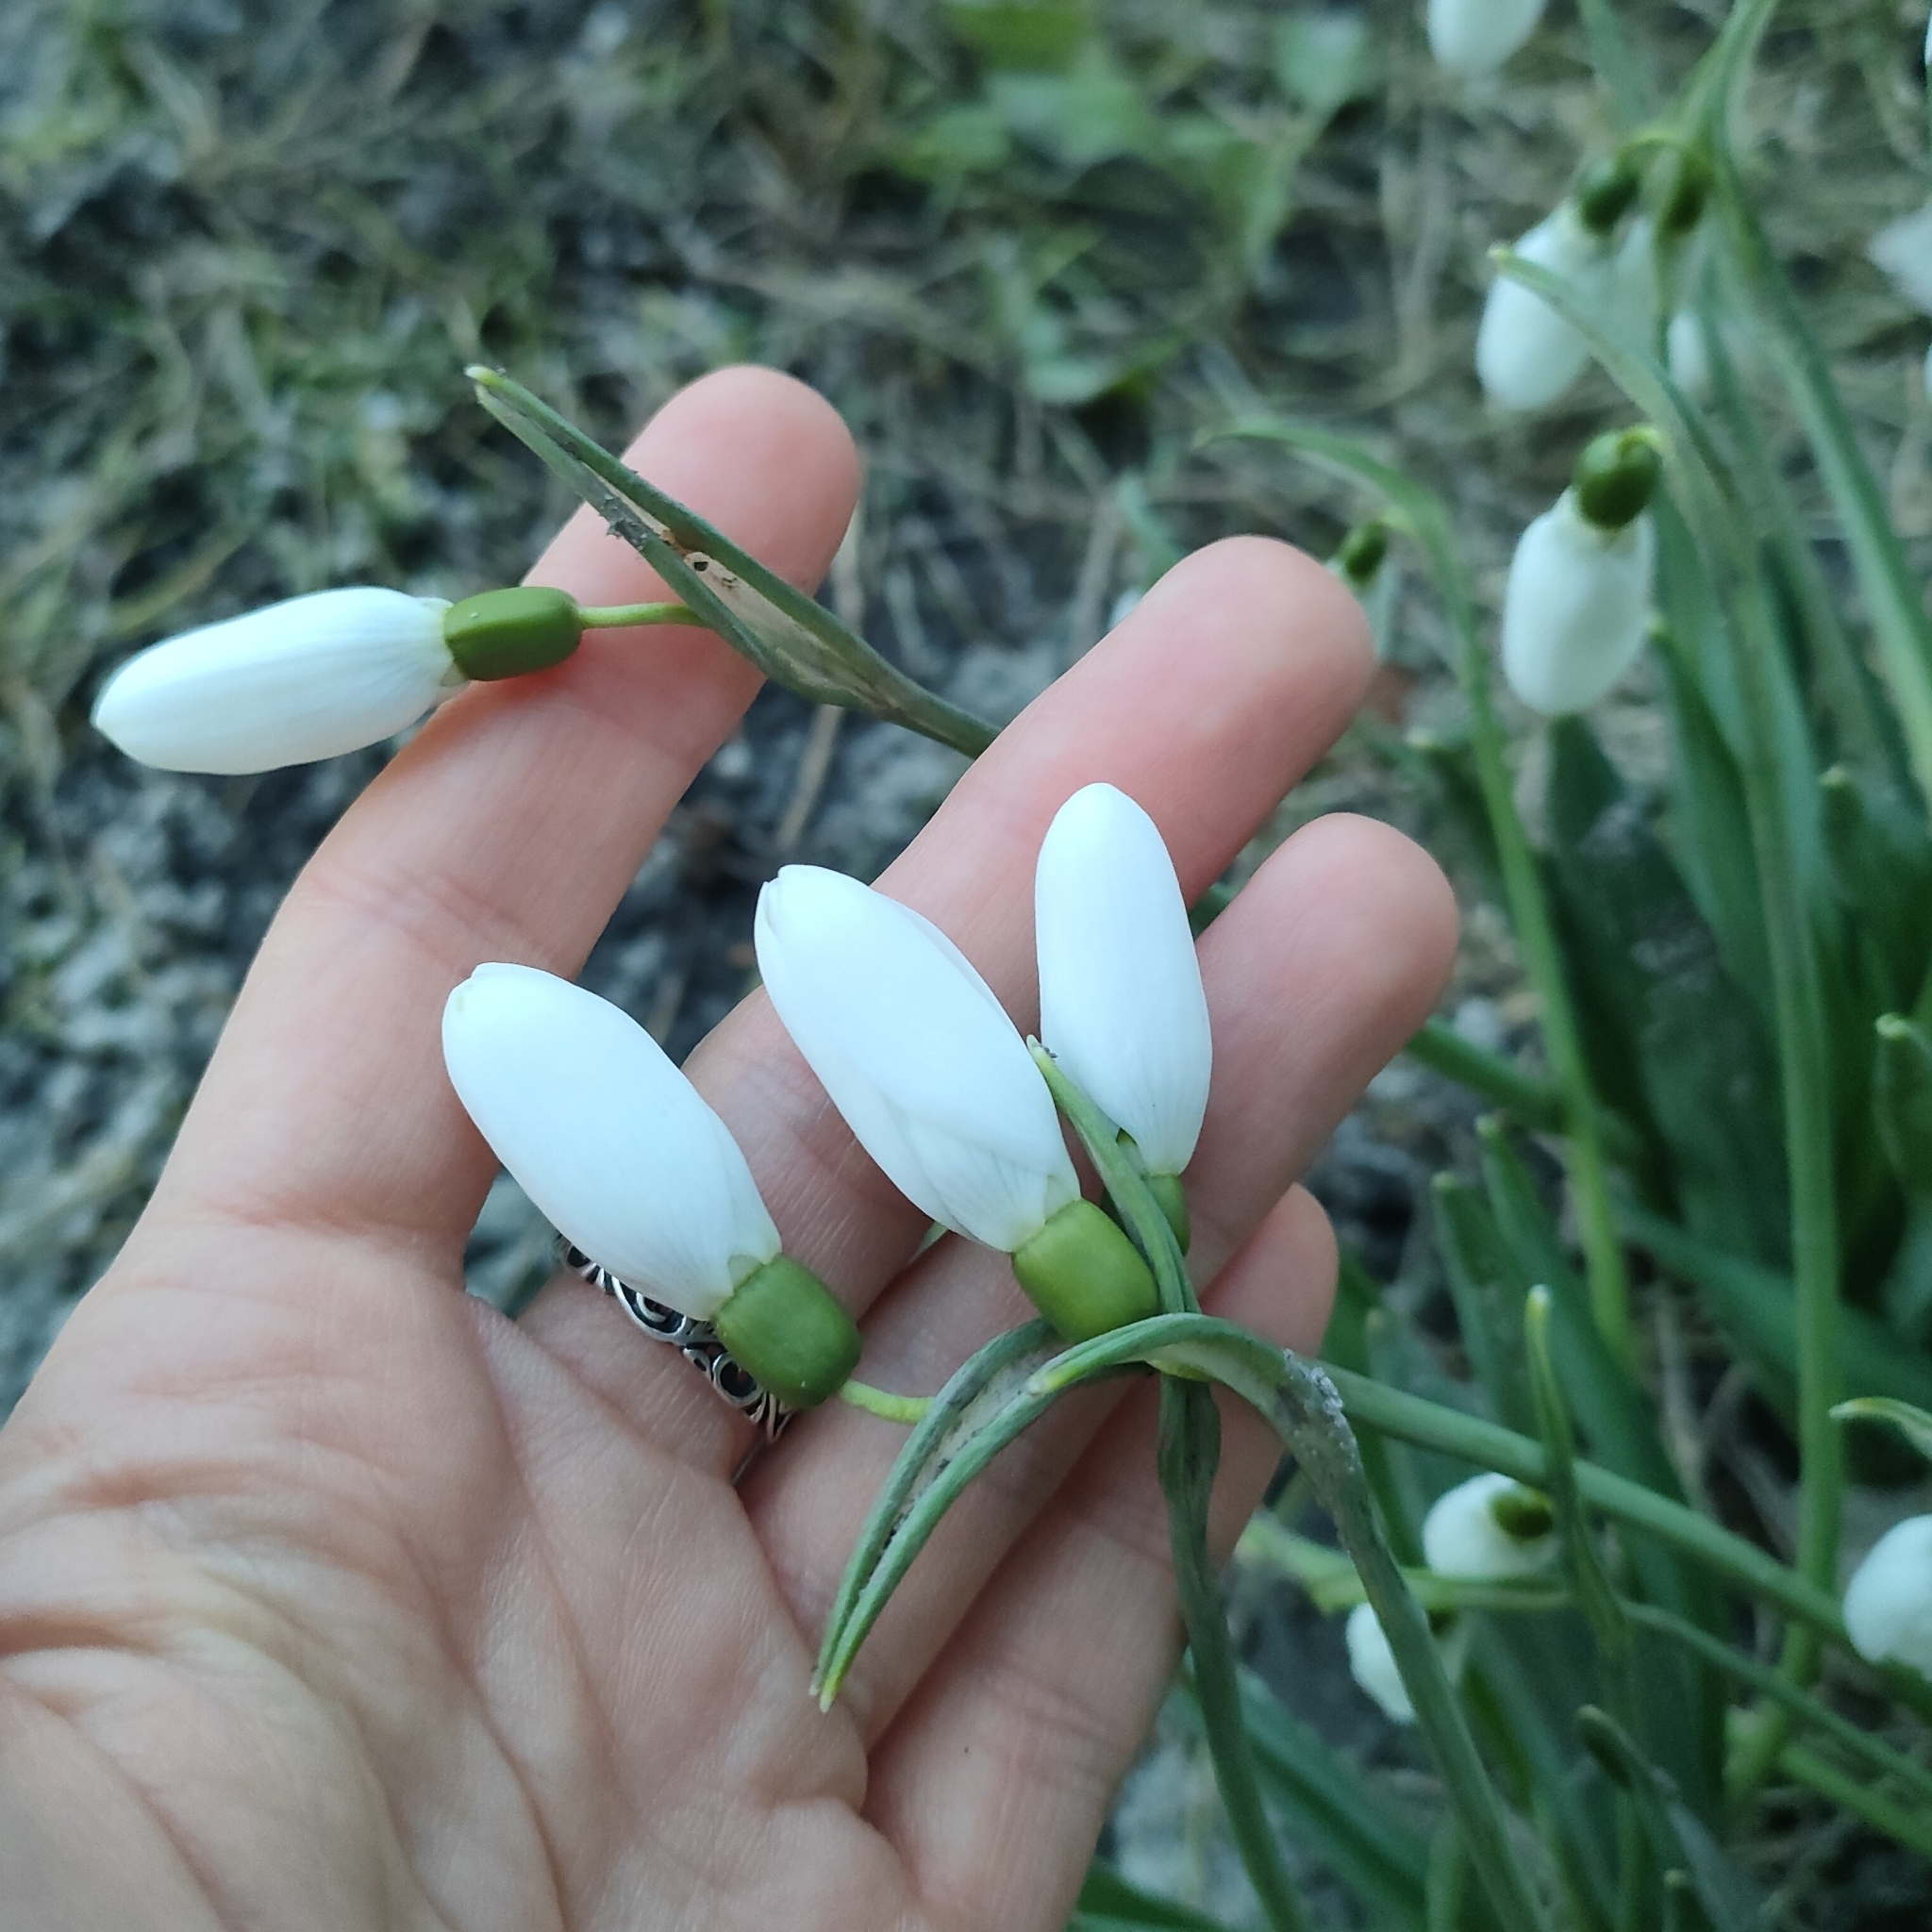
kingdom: Plantae
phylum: Tracheophyta
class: Liliopsida
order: Asparagales
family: Amaryllidaceae
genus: Galanthus
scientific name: Galanthus nivalis
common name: Snowdrop
